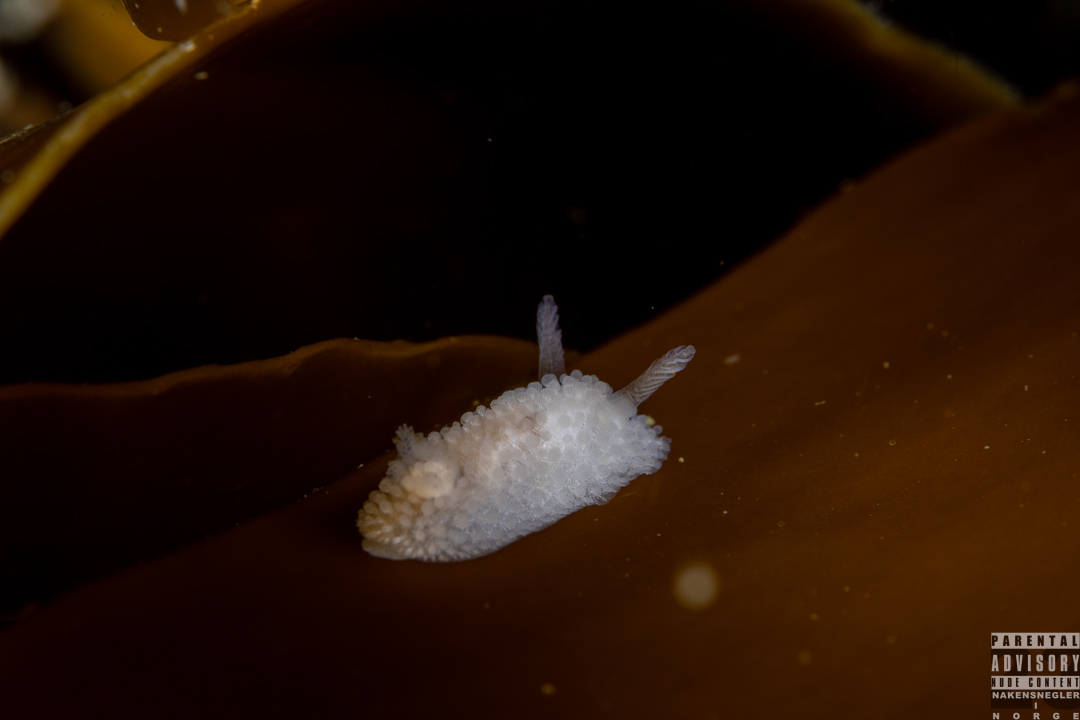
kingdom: Animalia
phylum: Mollusca
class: Gastropoda
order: Nudibranchia
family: Onchidorididae
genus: Onchidoris
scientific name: Onchidoris muricata
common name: Rough doris
